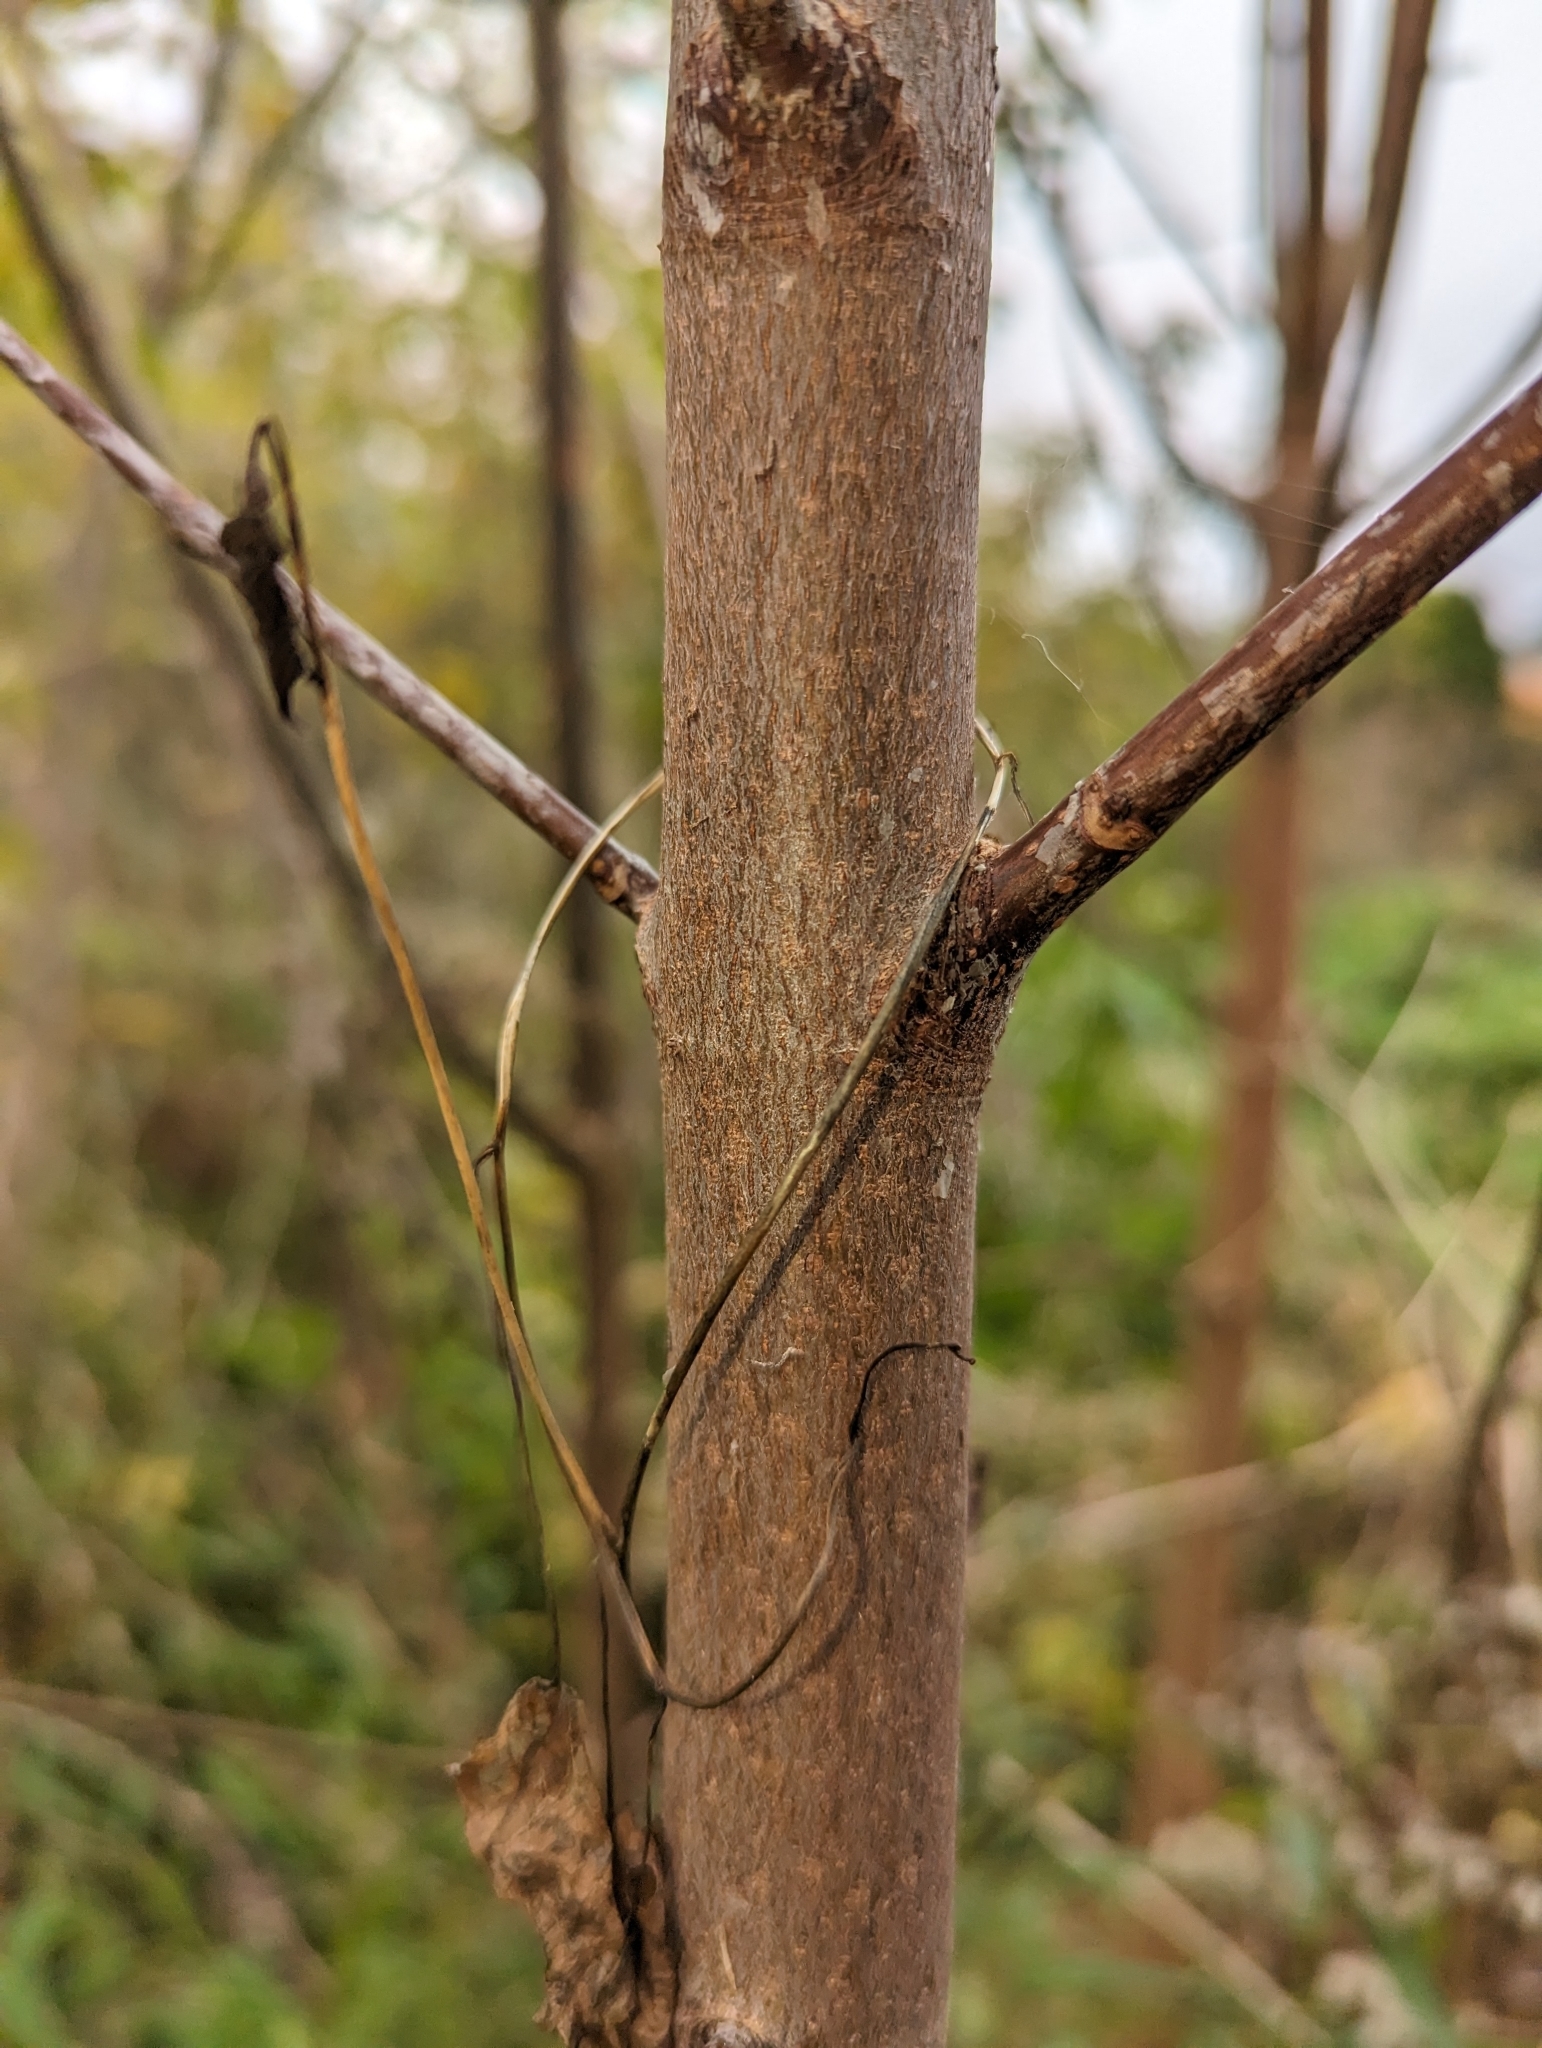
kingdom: Plantae
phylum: Tracheophyta
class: Magnoliopsida
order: Sapindales
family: Sapindaceae
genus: Acer
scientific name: Acer saccharinum
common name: Silver maple
